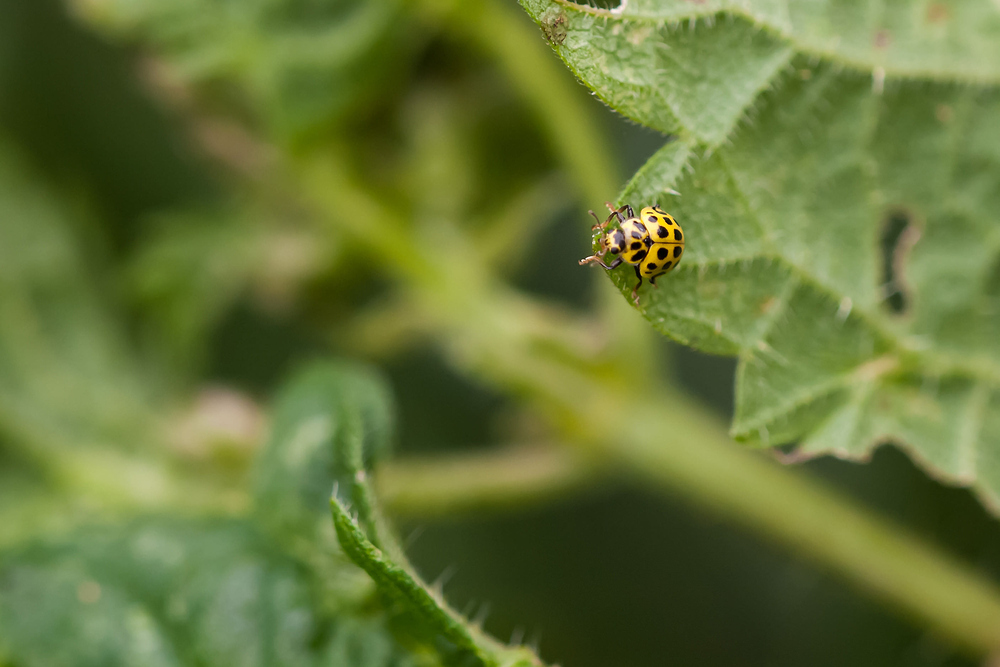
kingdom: Animalia
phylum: Arthropoda
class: Insecta
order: Coleoptera
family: Coccinellidae
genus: Psyllobora
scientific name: Psyllobora vigintiduopunctata
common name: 22-spot ladybird
